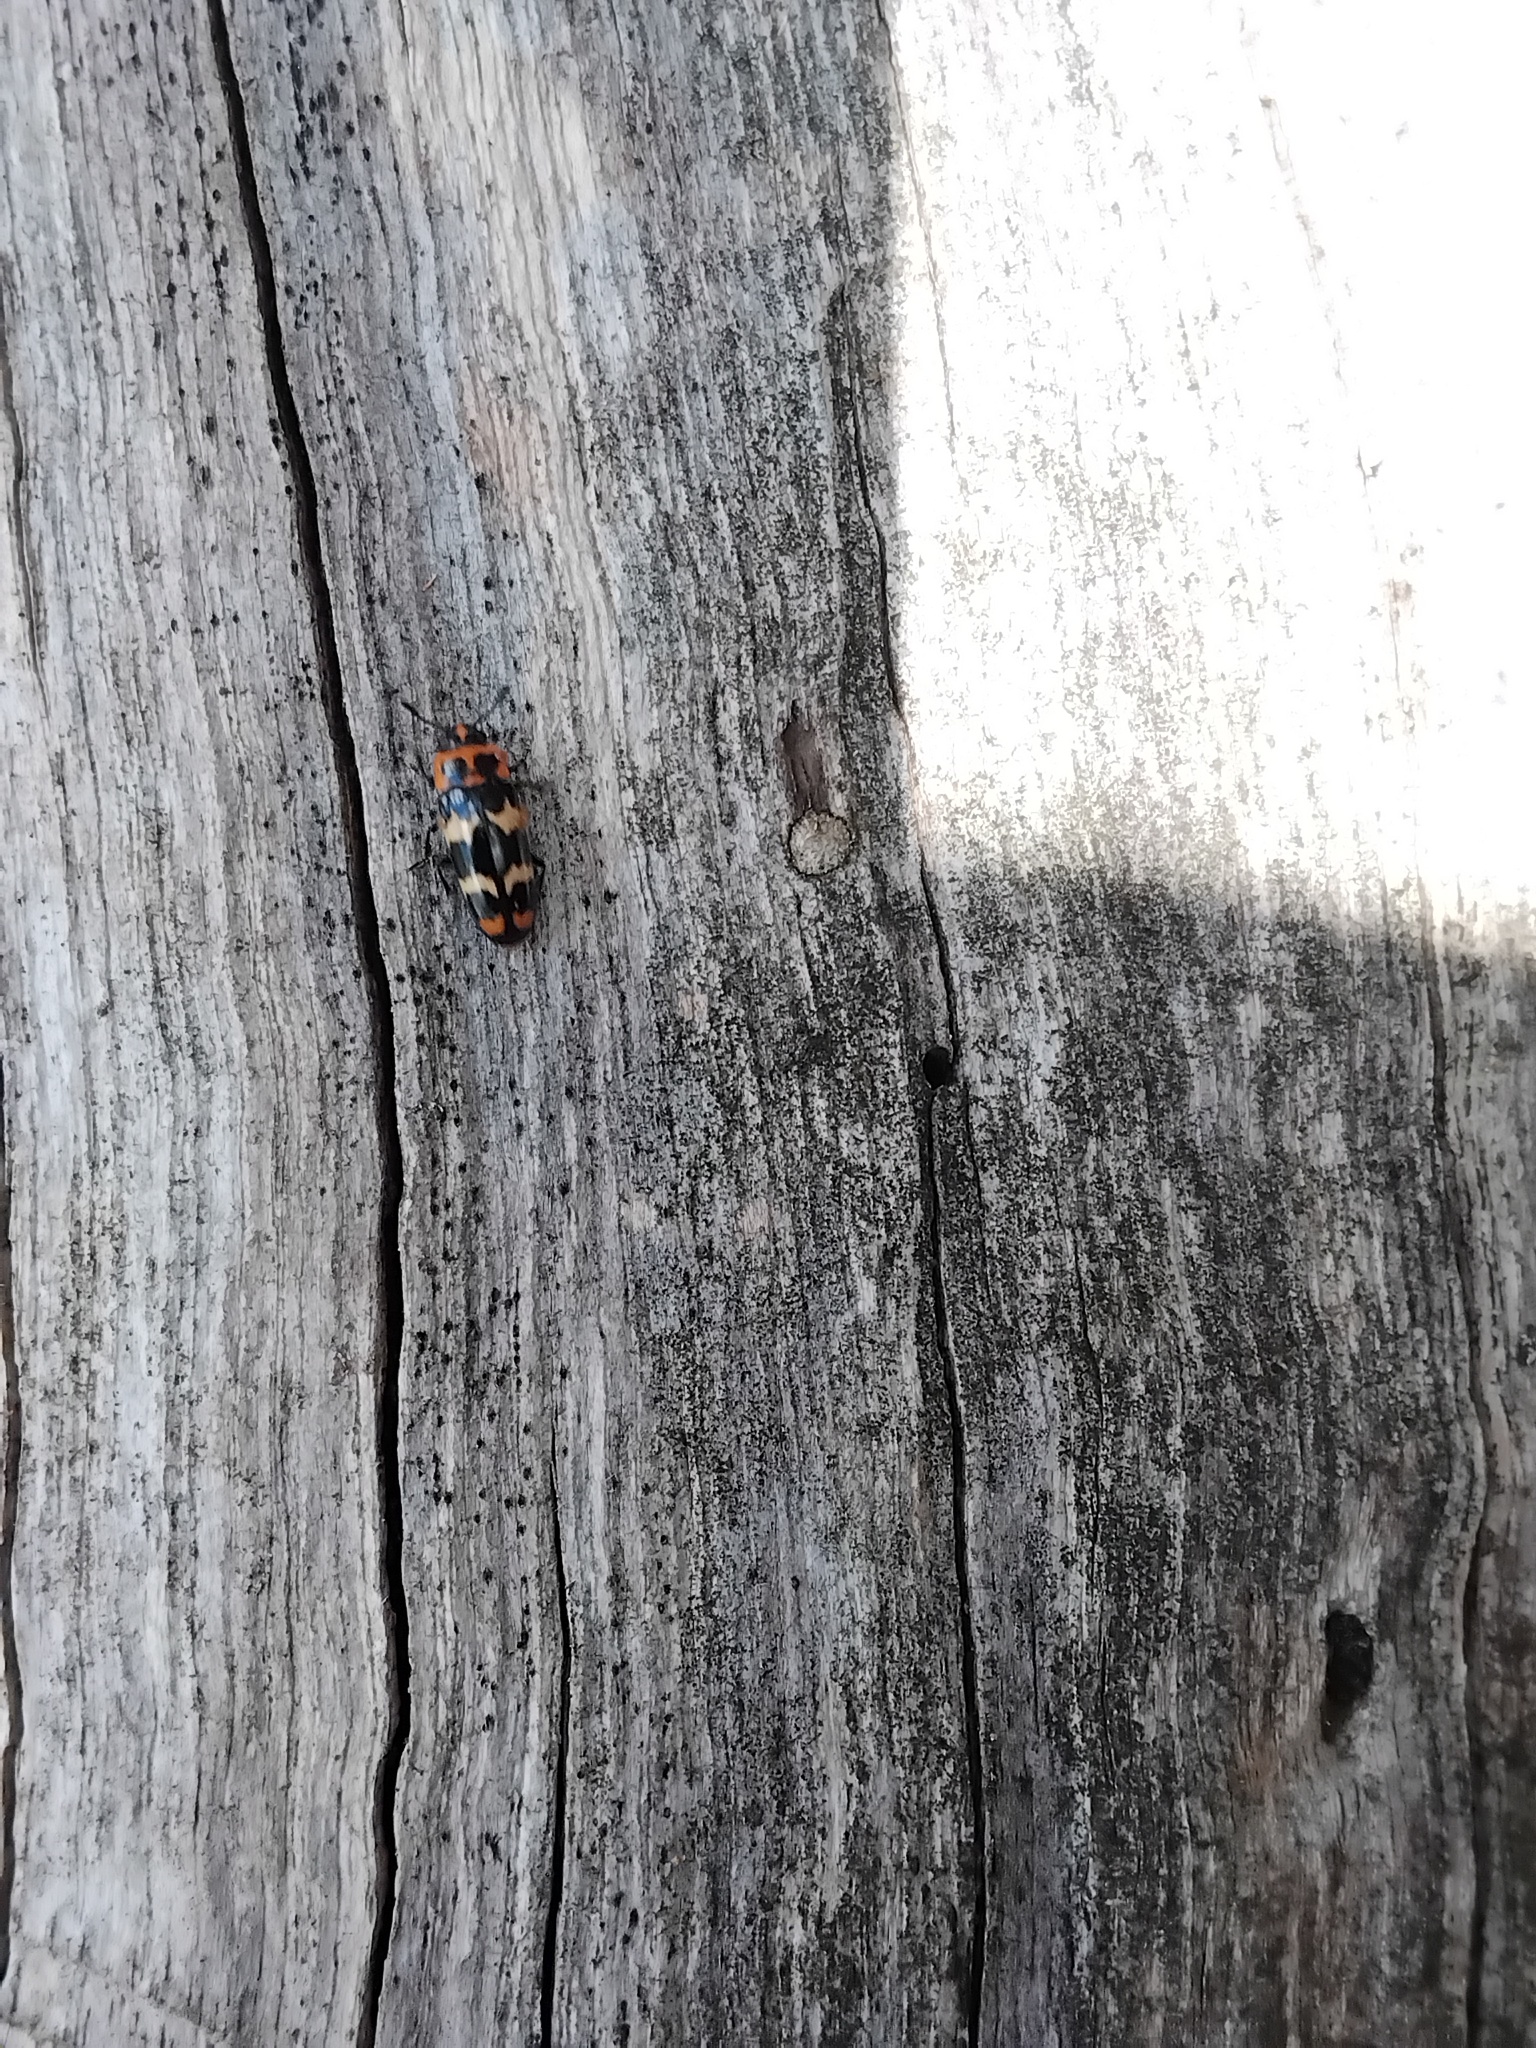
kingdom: Animalia
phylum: Arthropoda
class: Insecta
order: Coleoptera
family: Erotylidae
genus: Episcaphula
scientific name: Episcaphula
